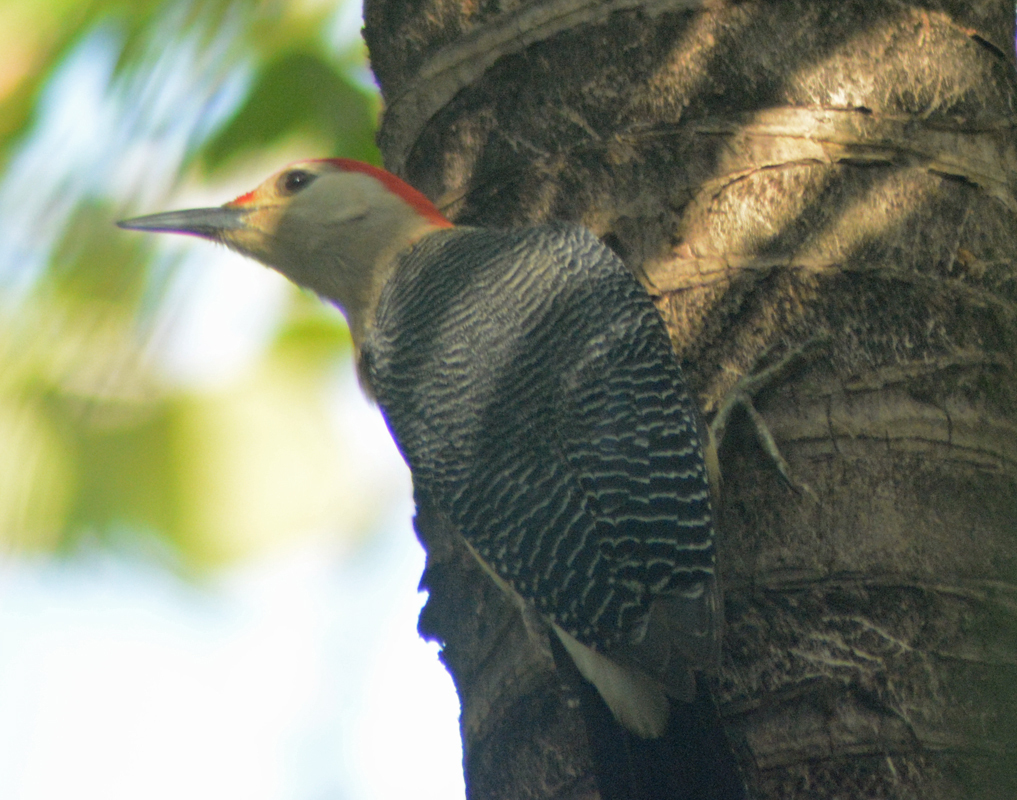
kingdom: Animalia
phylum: Chordata
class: Aves
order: Piciformes
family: Picidae
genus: Melanerpes
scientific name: Melanerpes aurifrons
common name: Golden-fronted woodpecker
